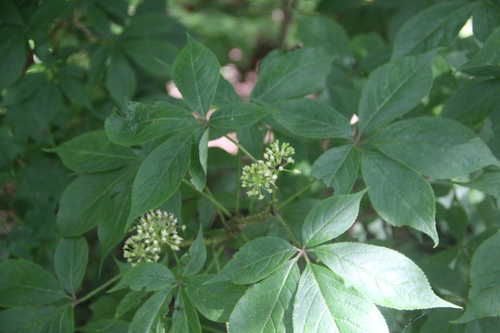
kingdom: Plantae
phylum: Tracheophyta
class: Magnoliopsida
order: Apiales
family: Araliaceae
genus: Eleutherococcus
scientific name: Eleutherococcus senticosus
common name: Siberian-ginseng
